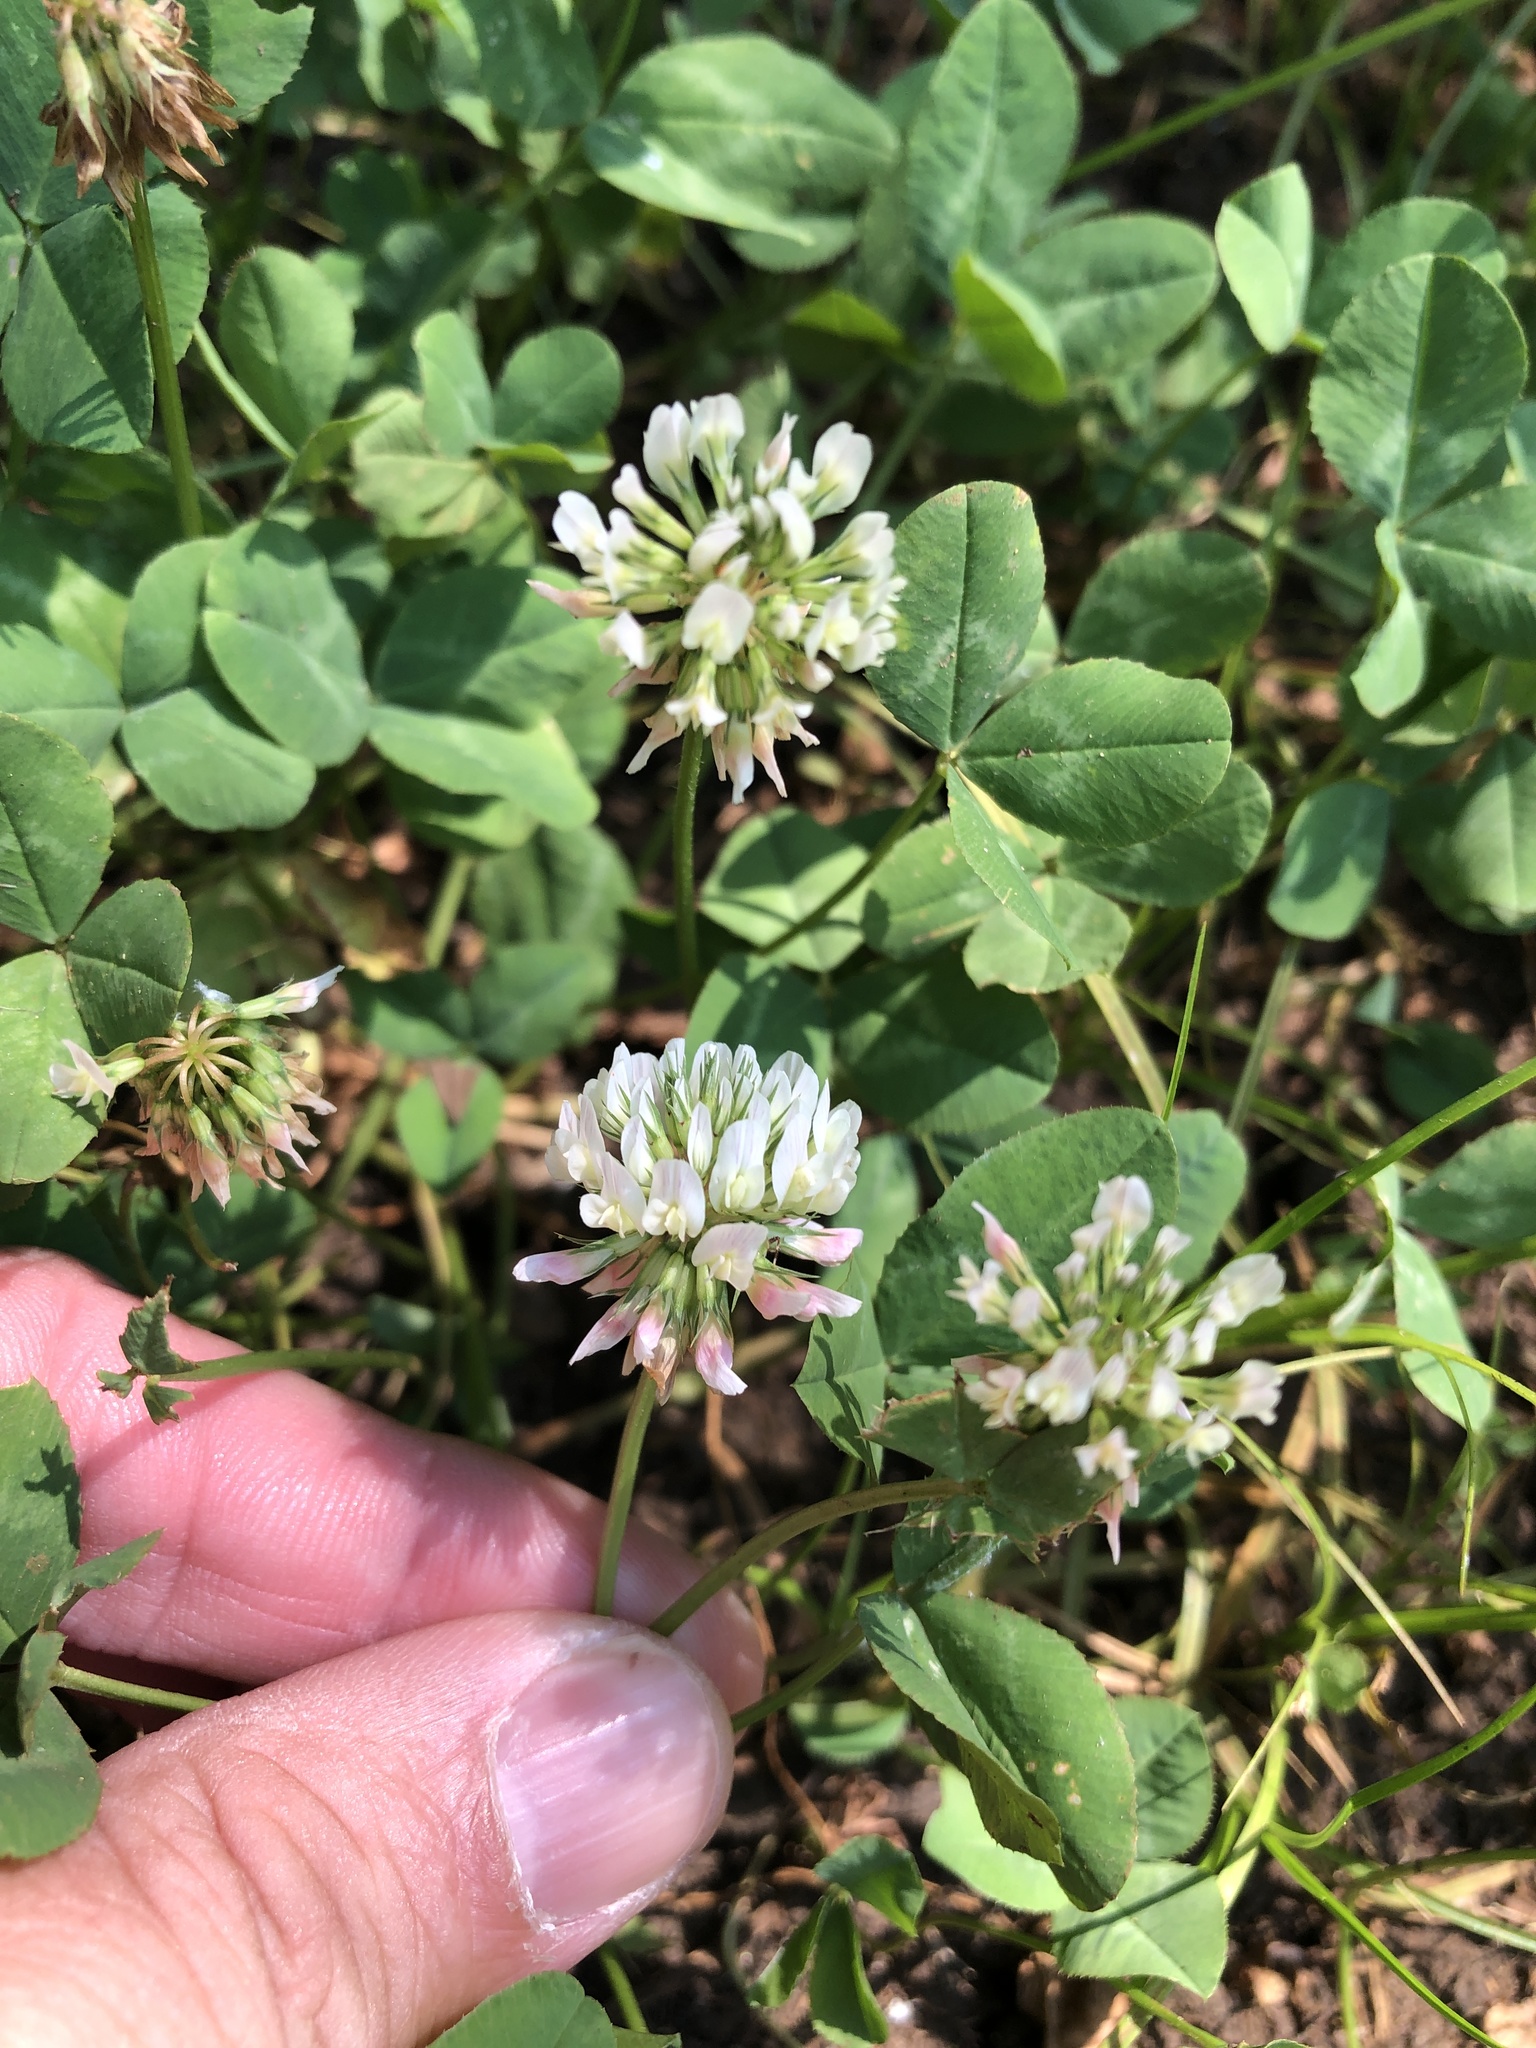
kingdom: Plantae
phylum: Tracheophyta
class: Magnoliopsida
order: Fabales
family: Fabaceae
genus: Trifolium
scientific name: Trifolium repens
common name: White clover
